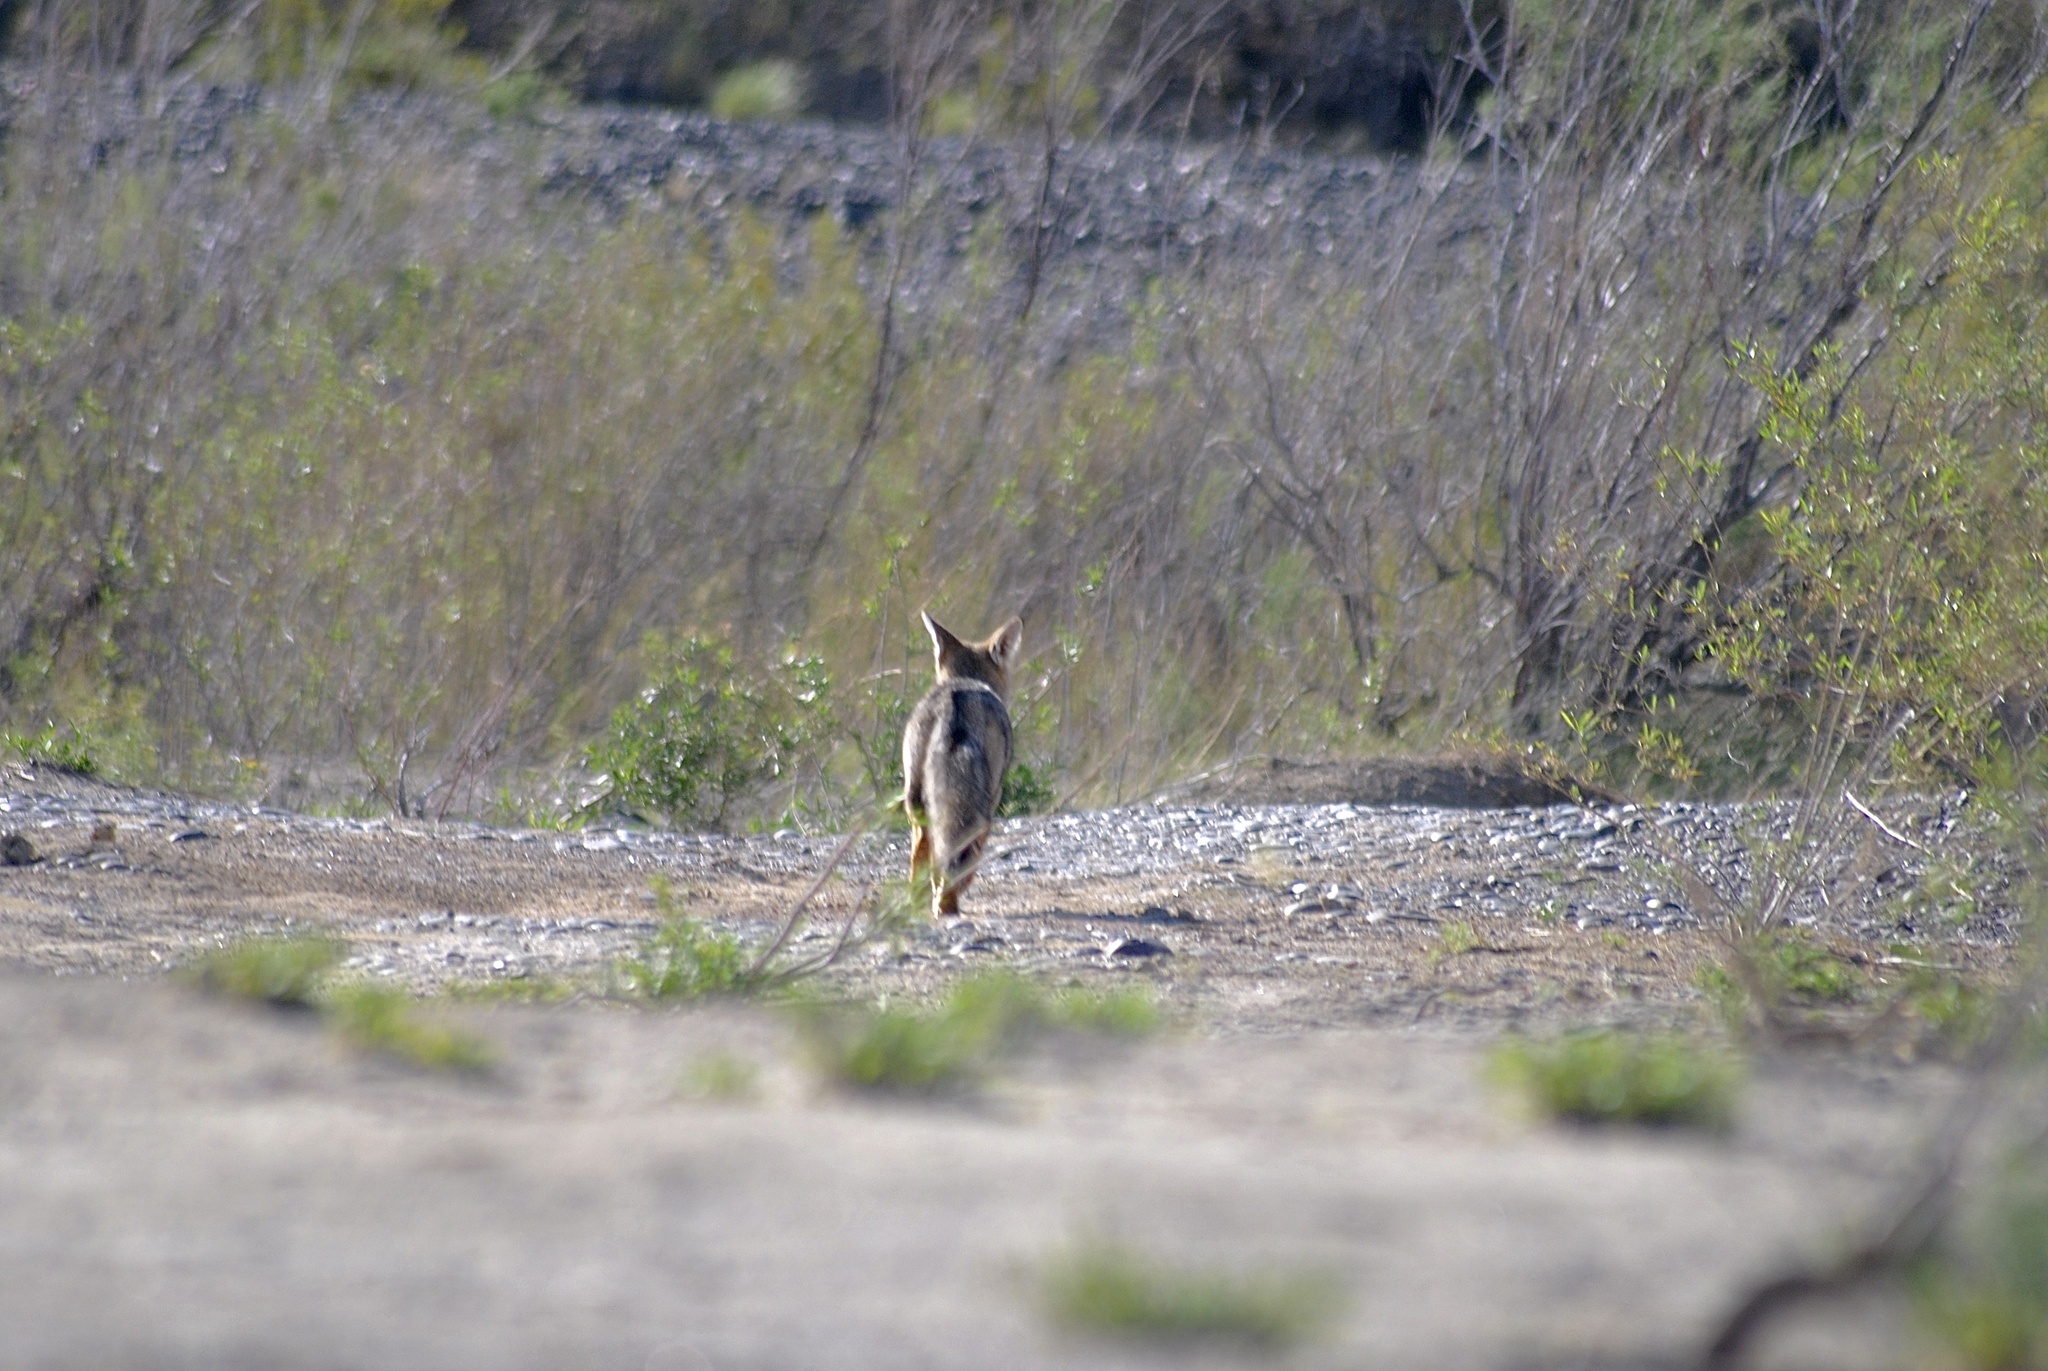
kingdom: Animalia
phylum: Chordata
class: Mammalia
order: Carnivora
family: Canidae
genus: Lycalopex
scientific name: Lycalopex gymnocercus
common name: Pampas fox
